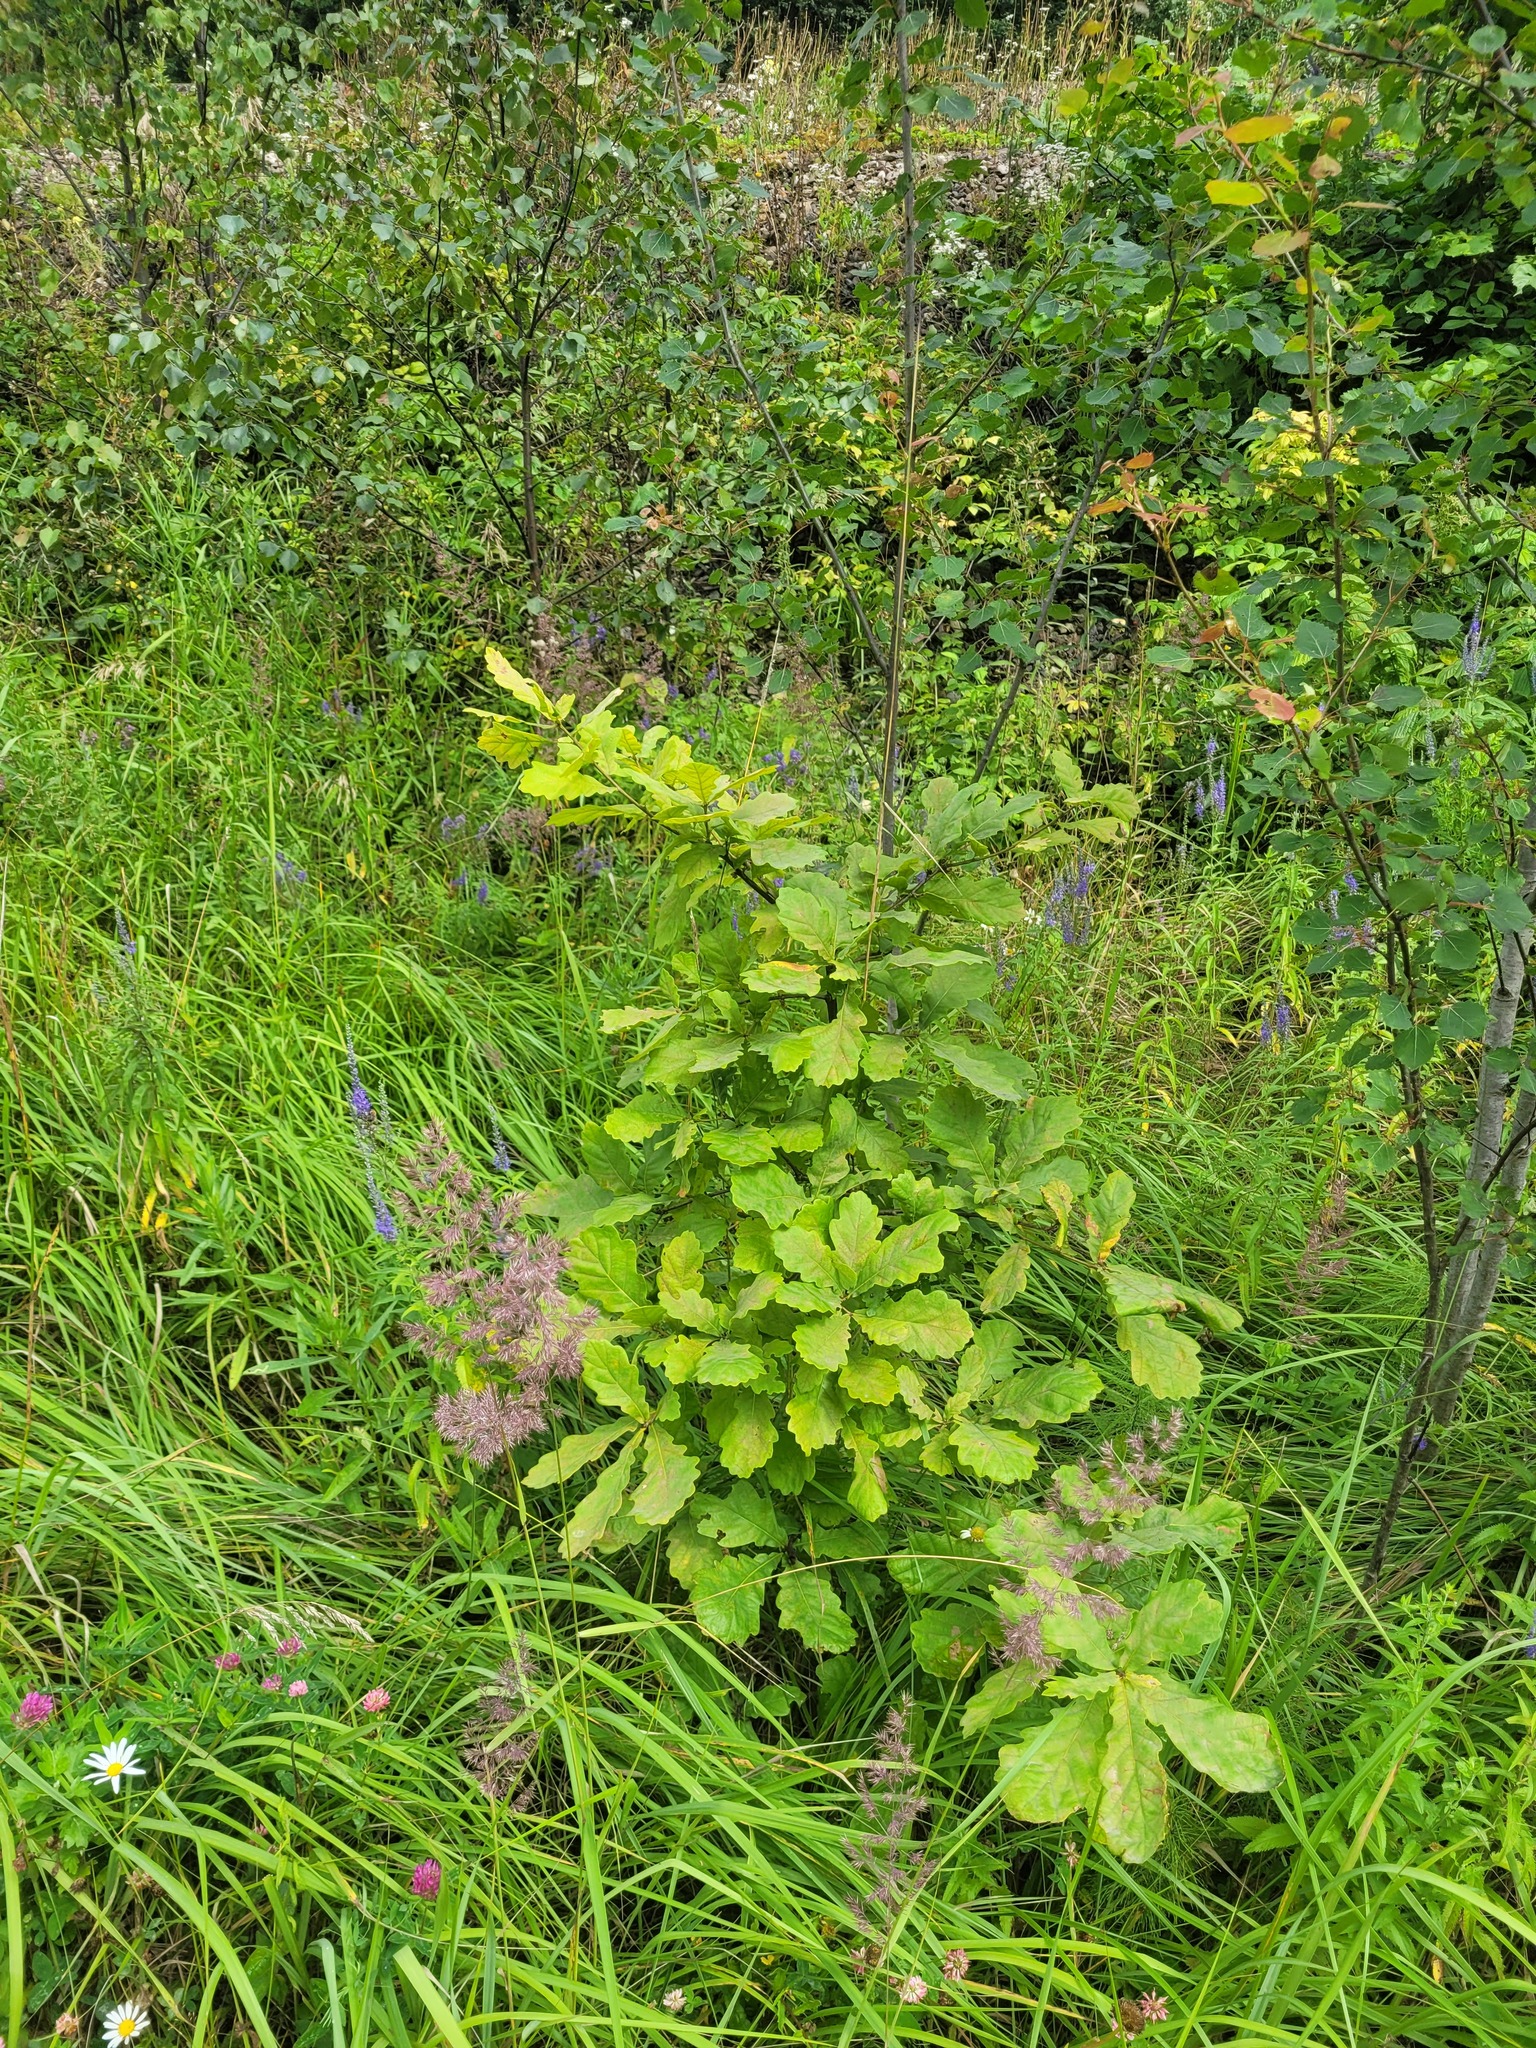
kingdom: Plantae
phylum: Tracheophyta
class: Magnoliopsida
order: Fagales
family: Fagaceae
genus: Quercus
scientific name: Quercus robur
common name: Pedunculate oak
